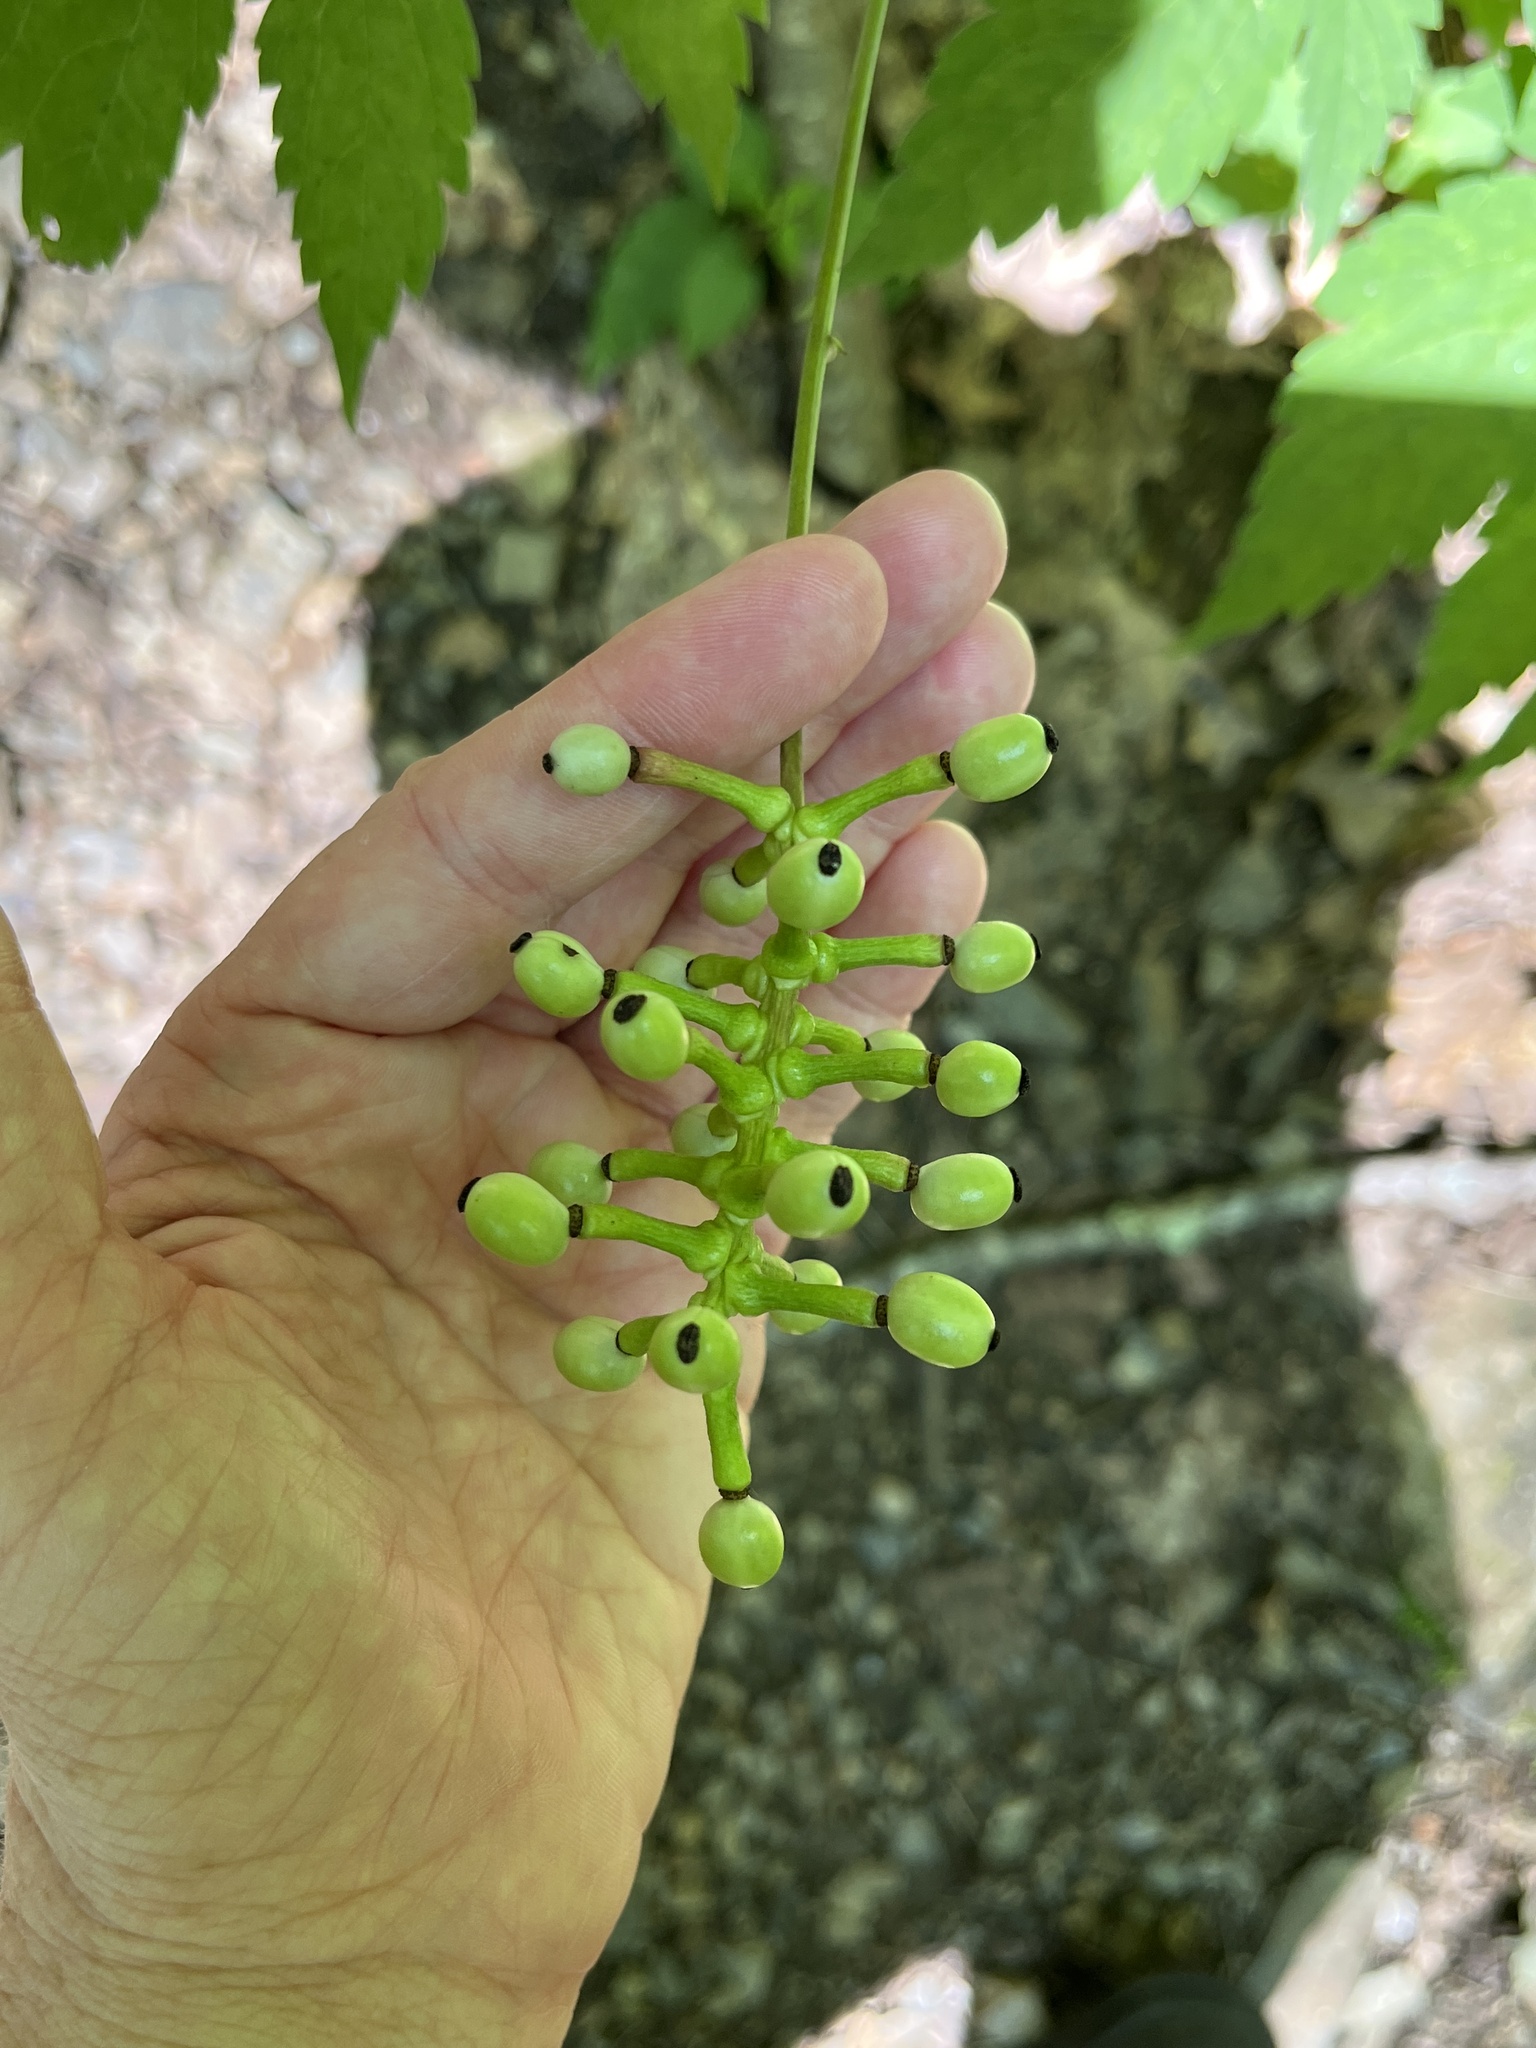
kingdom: Plantae
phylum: Tracheophyta
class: Magnoliopsida
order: Ranunculales
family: Ranunculaceae
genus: Actaea
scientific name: Actaea pachypoda
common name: Doll's-eyes
